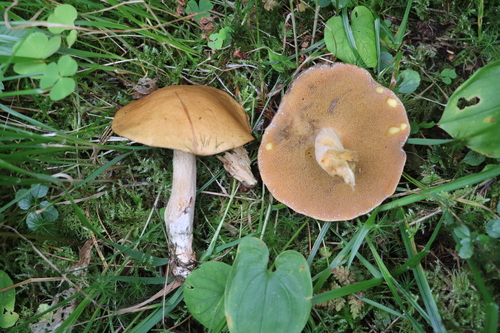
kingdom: Fungi
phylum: Basidiomycota
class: Agaricomycetes
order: Boletales
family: Suillaceae
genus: Suillus
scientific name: Suillus variegatus
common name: Velvet bolete
